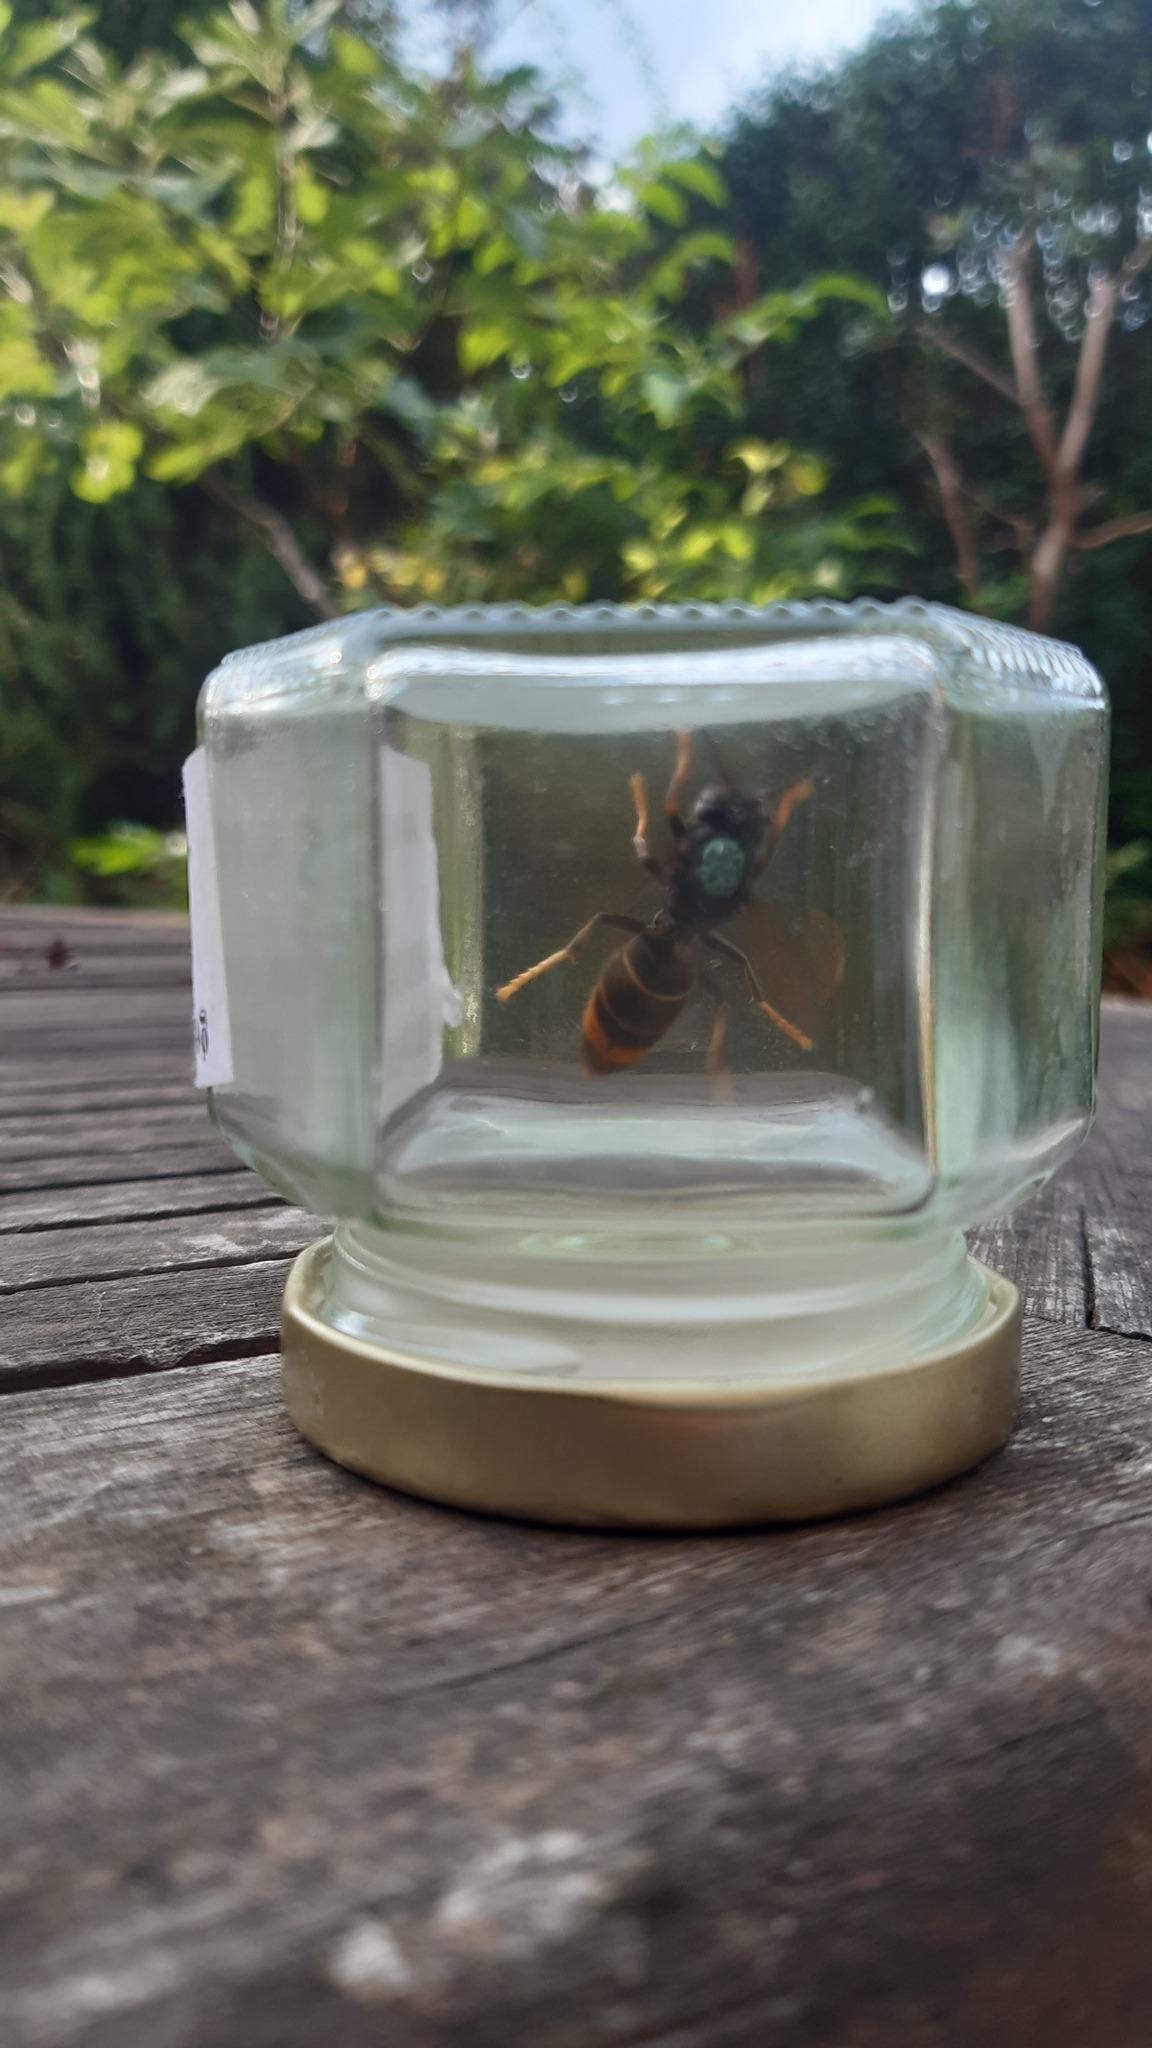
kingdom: Animalia
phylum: Arthropoda
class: Insecta
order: Hymenoptera
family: Vespidae
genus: Vespa
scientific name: Vespa velutina
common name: Asian hornet
